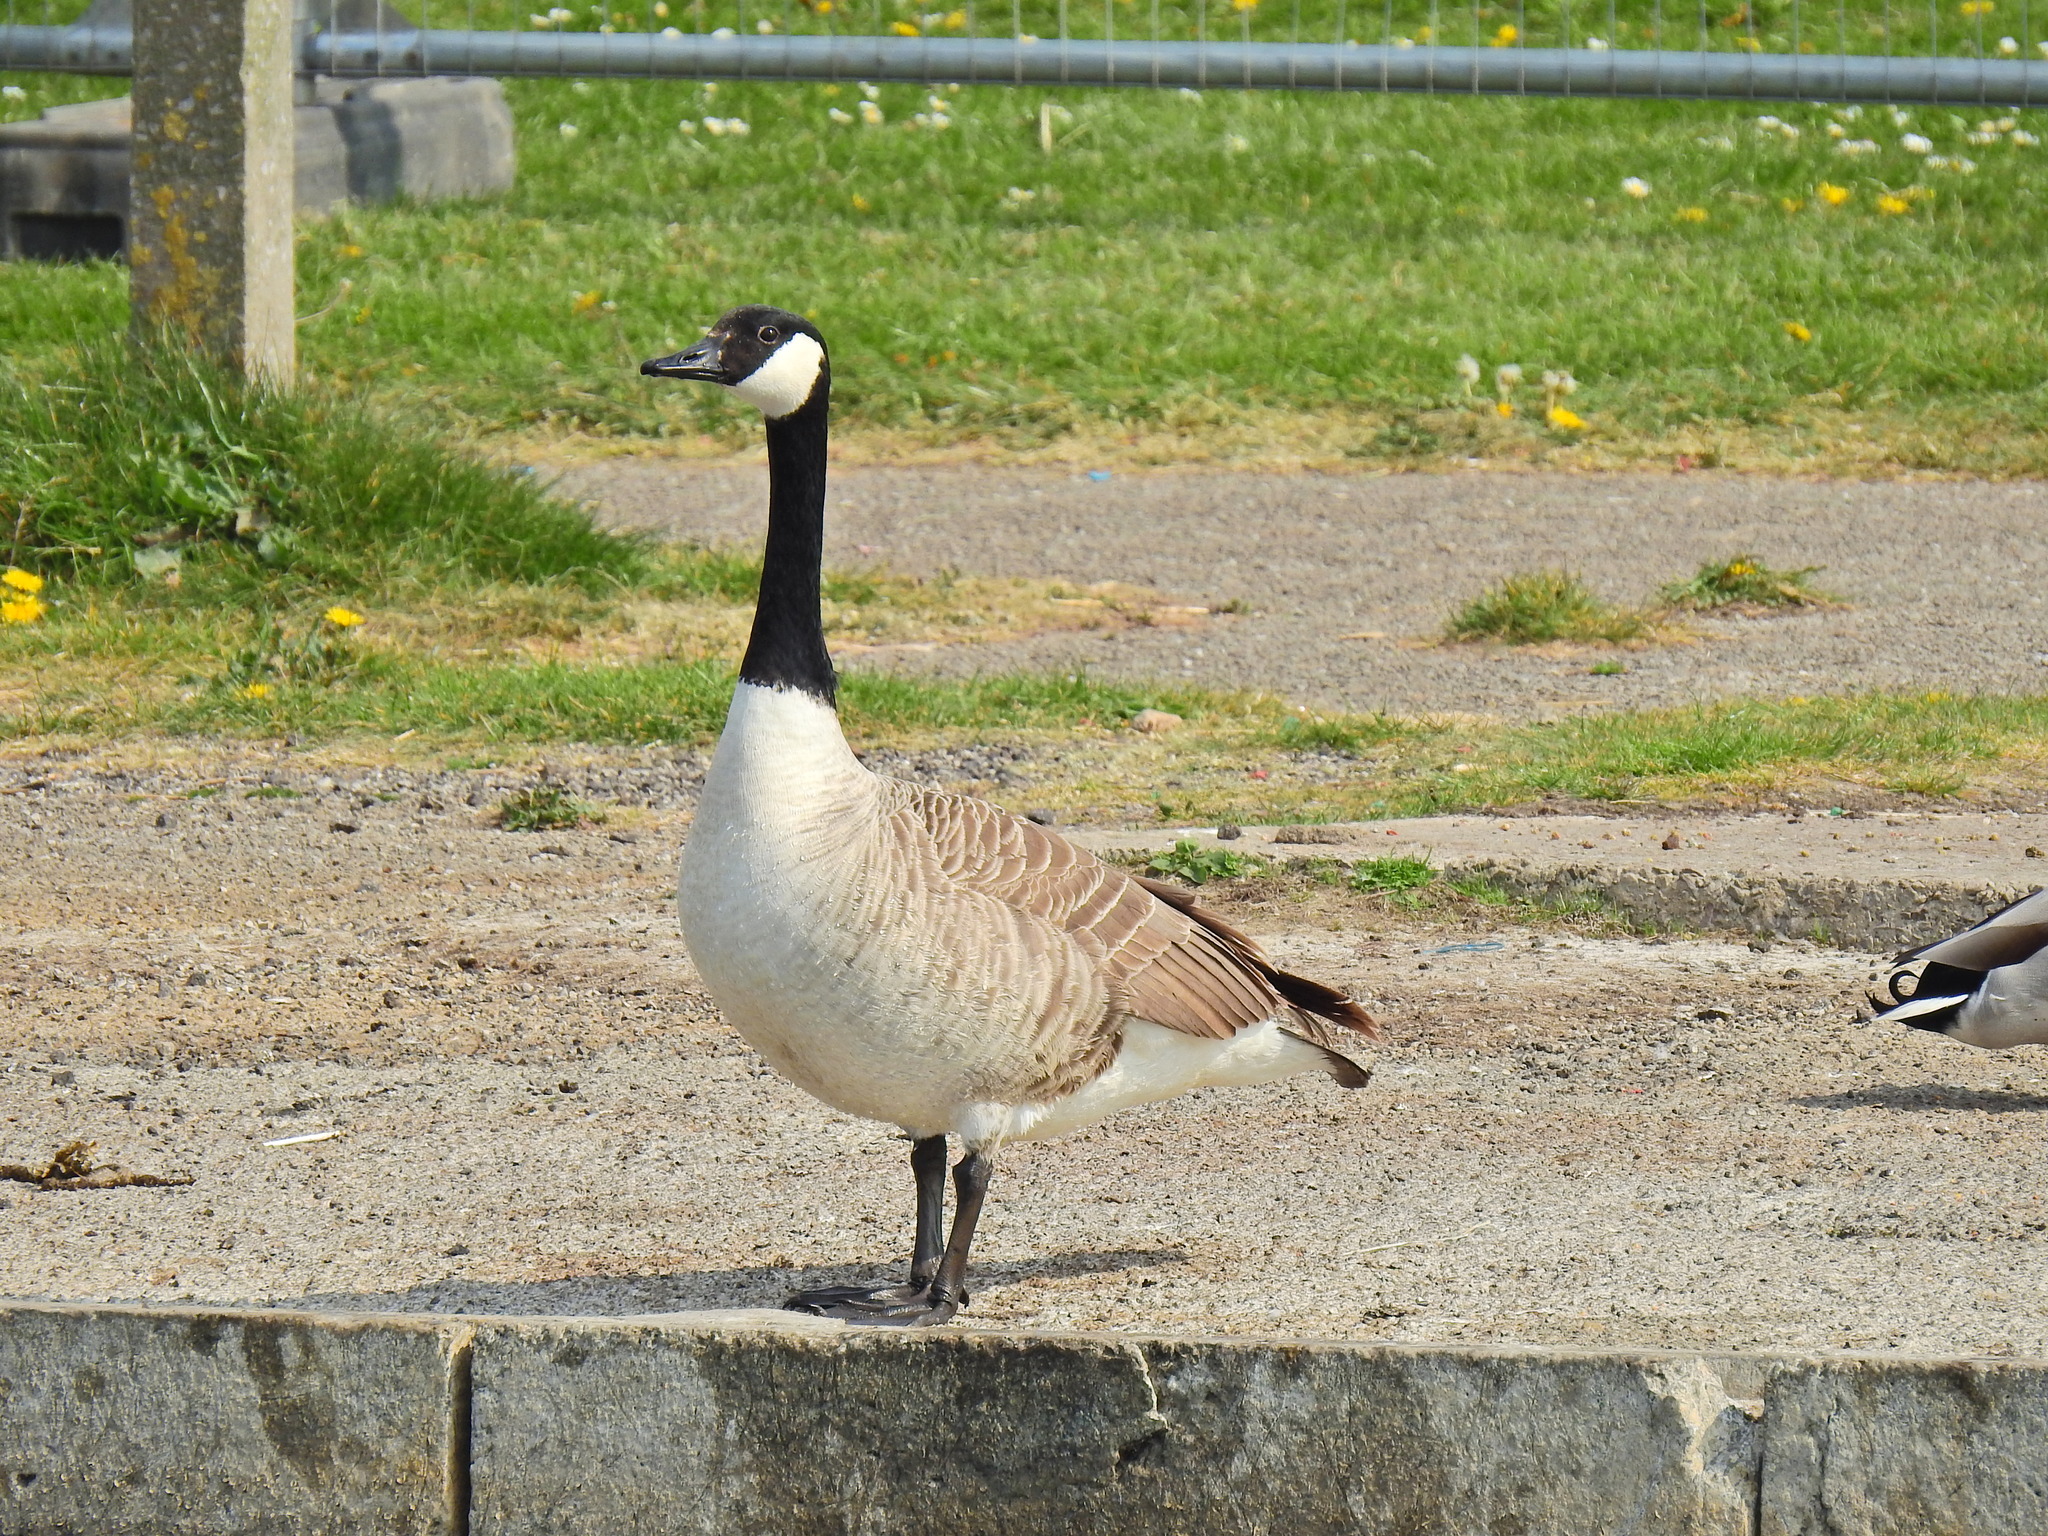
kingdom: Animalia
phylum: Chordata
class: Aves
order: Anseriformes
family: Anatidae
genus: Branta
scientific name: Branta canadensis
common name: Canada goose
